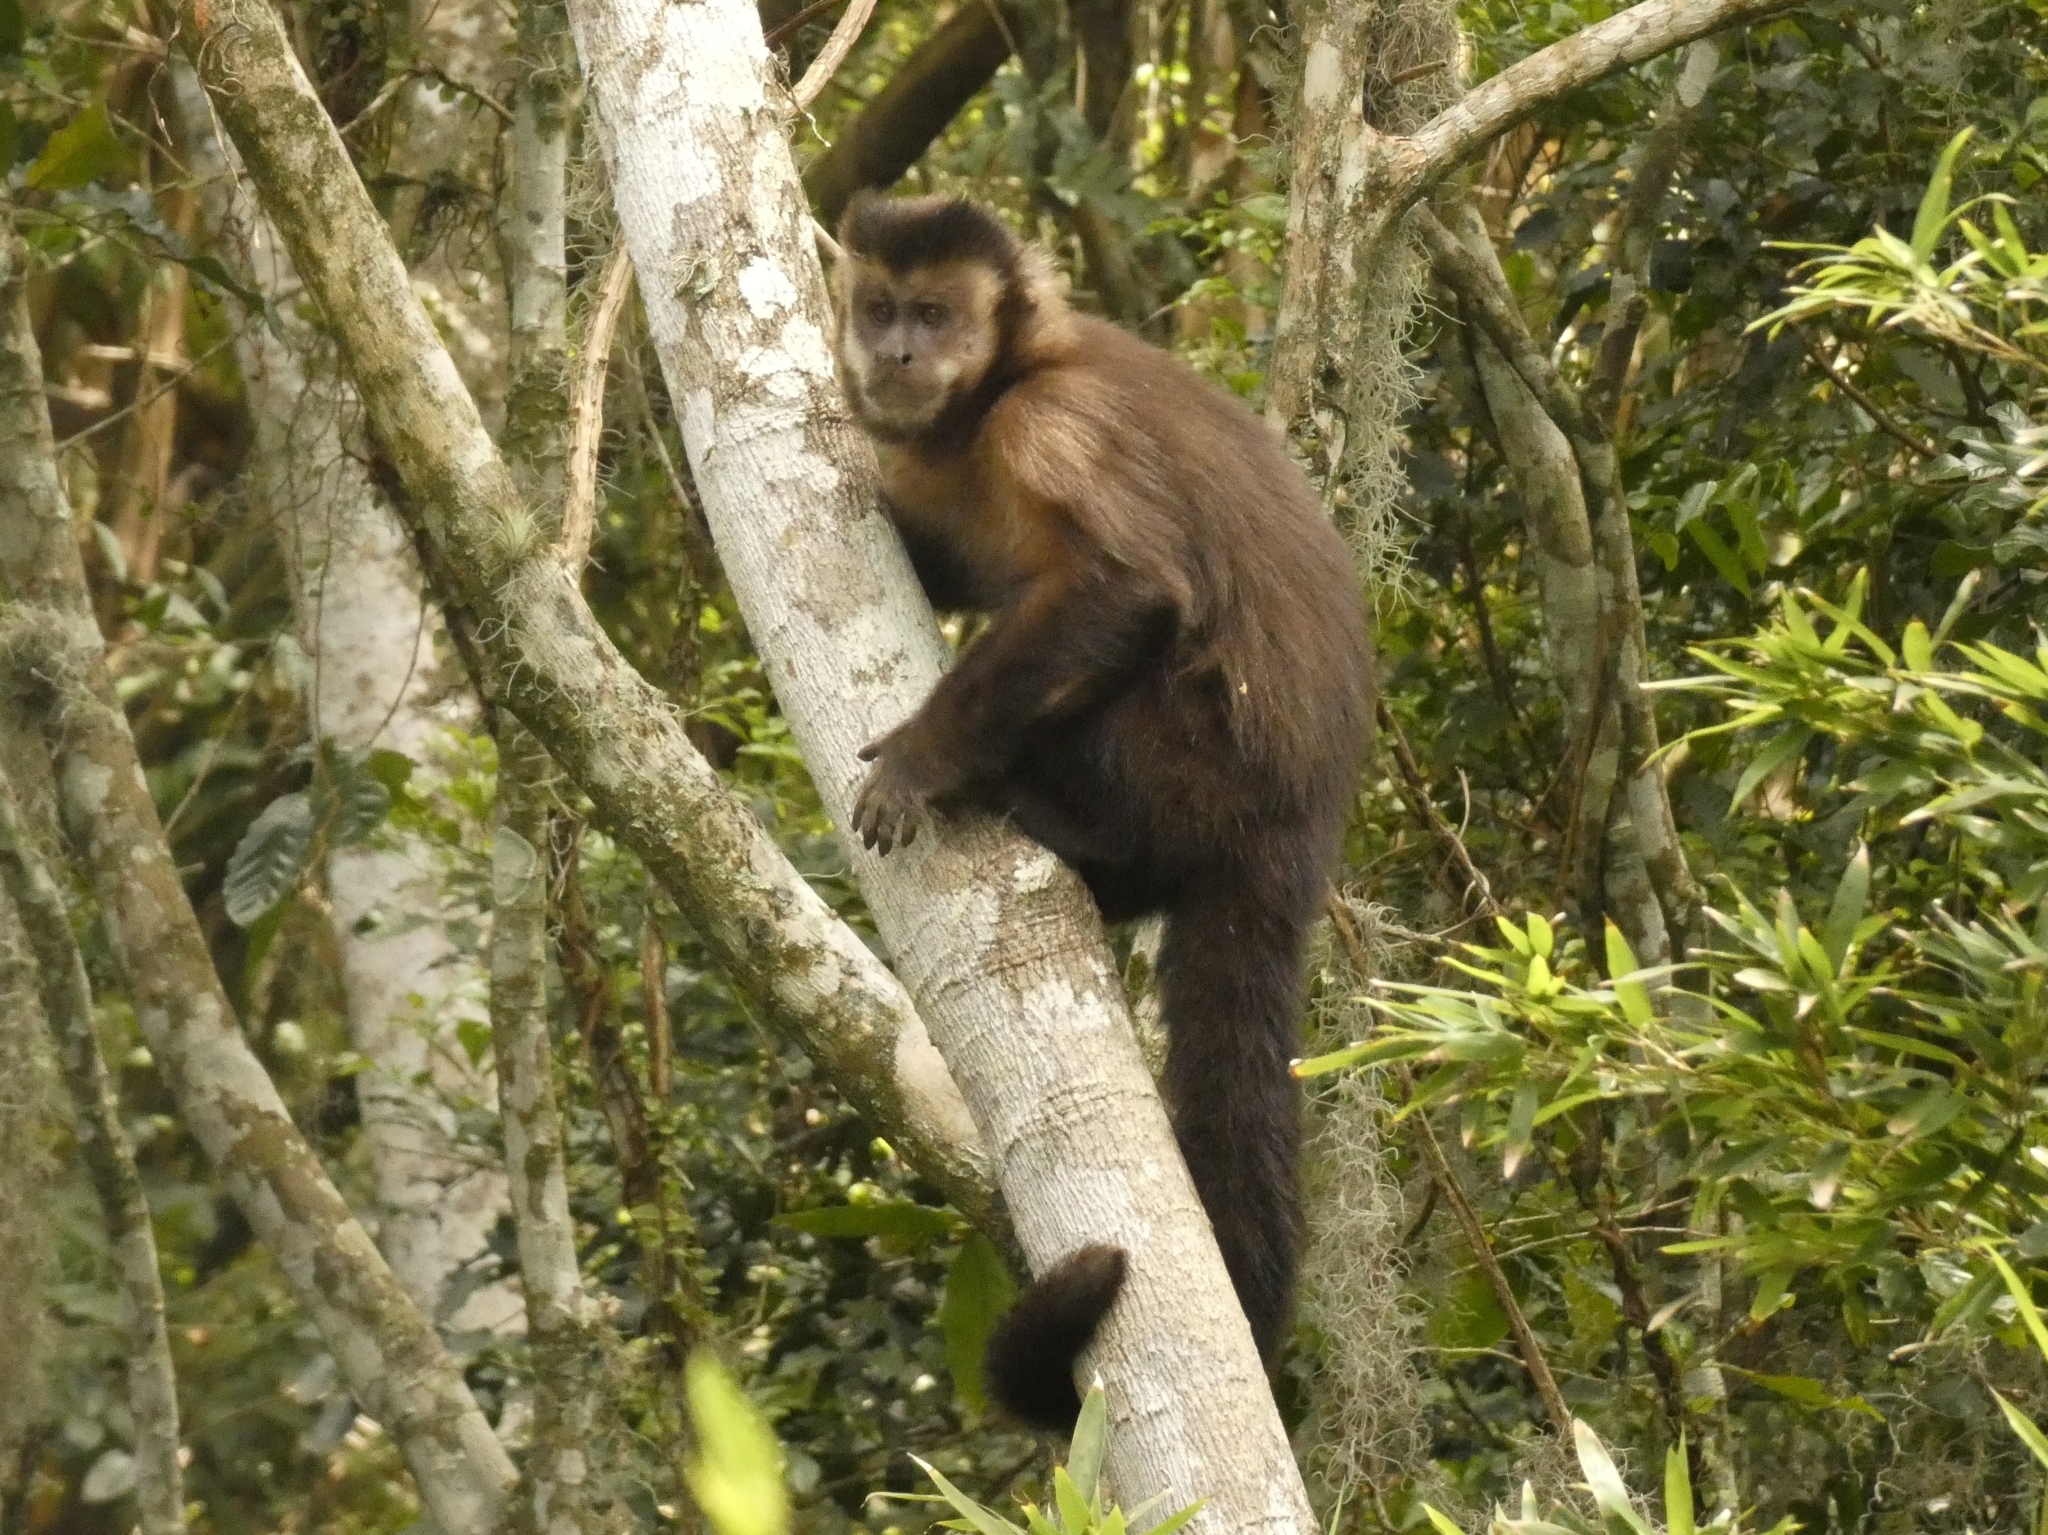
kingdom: Animalia
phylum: Chordata
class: Mammalia
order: Primates
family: Cebidae
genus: Sapajus
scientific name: Sapajus nigritus
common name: Black capuchin
